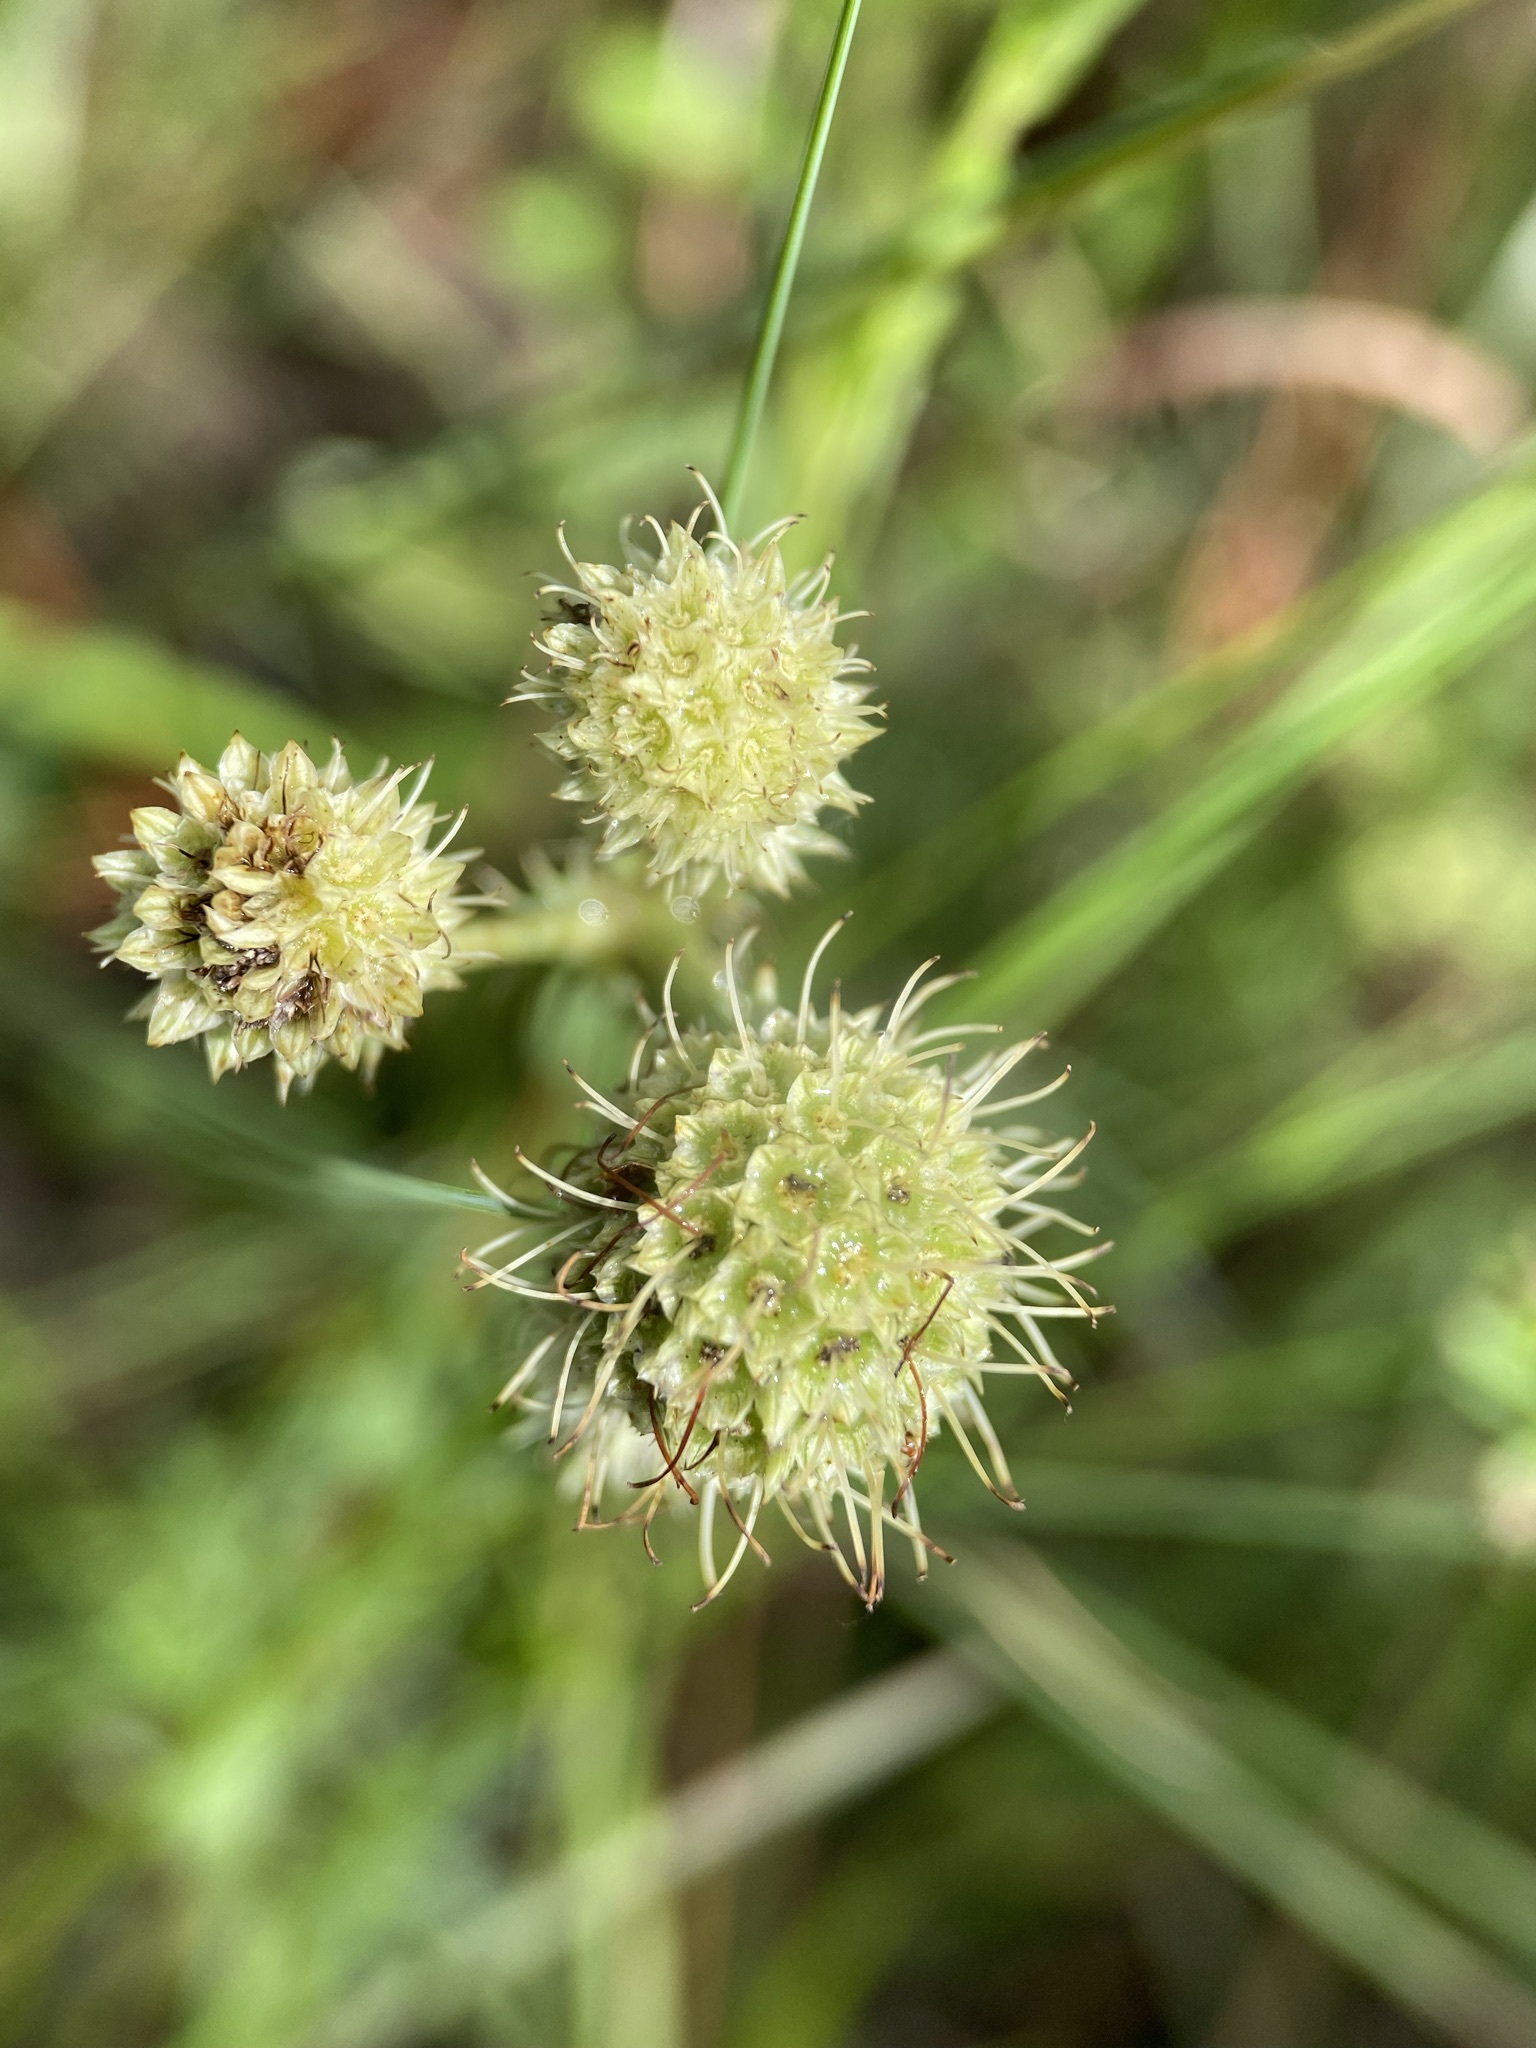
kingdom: Plantae
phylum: Tracheophyta
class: Magnoliopsida
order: Apiales
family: Apiaceae
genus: Eryngium
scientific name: Eryngium yuccifolium
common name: Button eryngo
